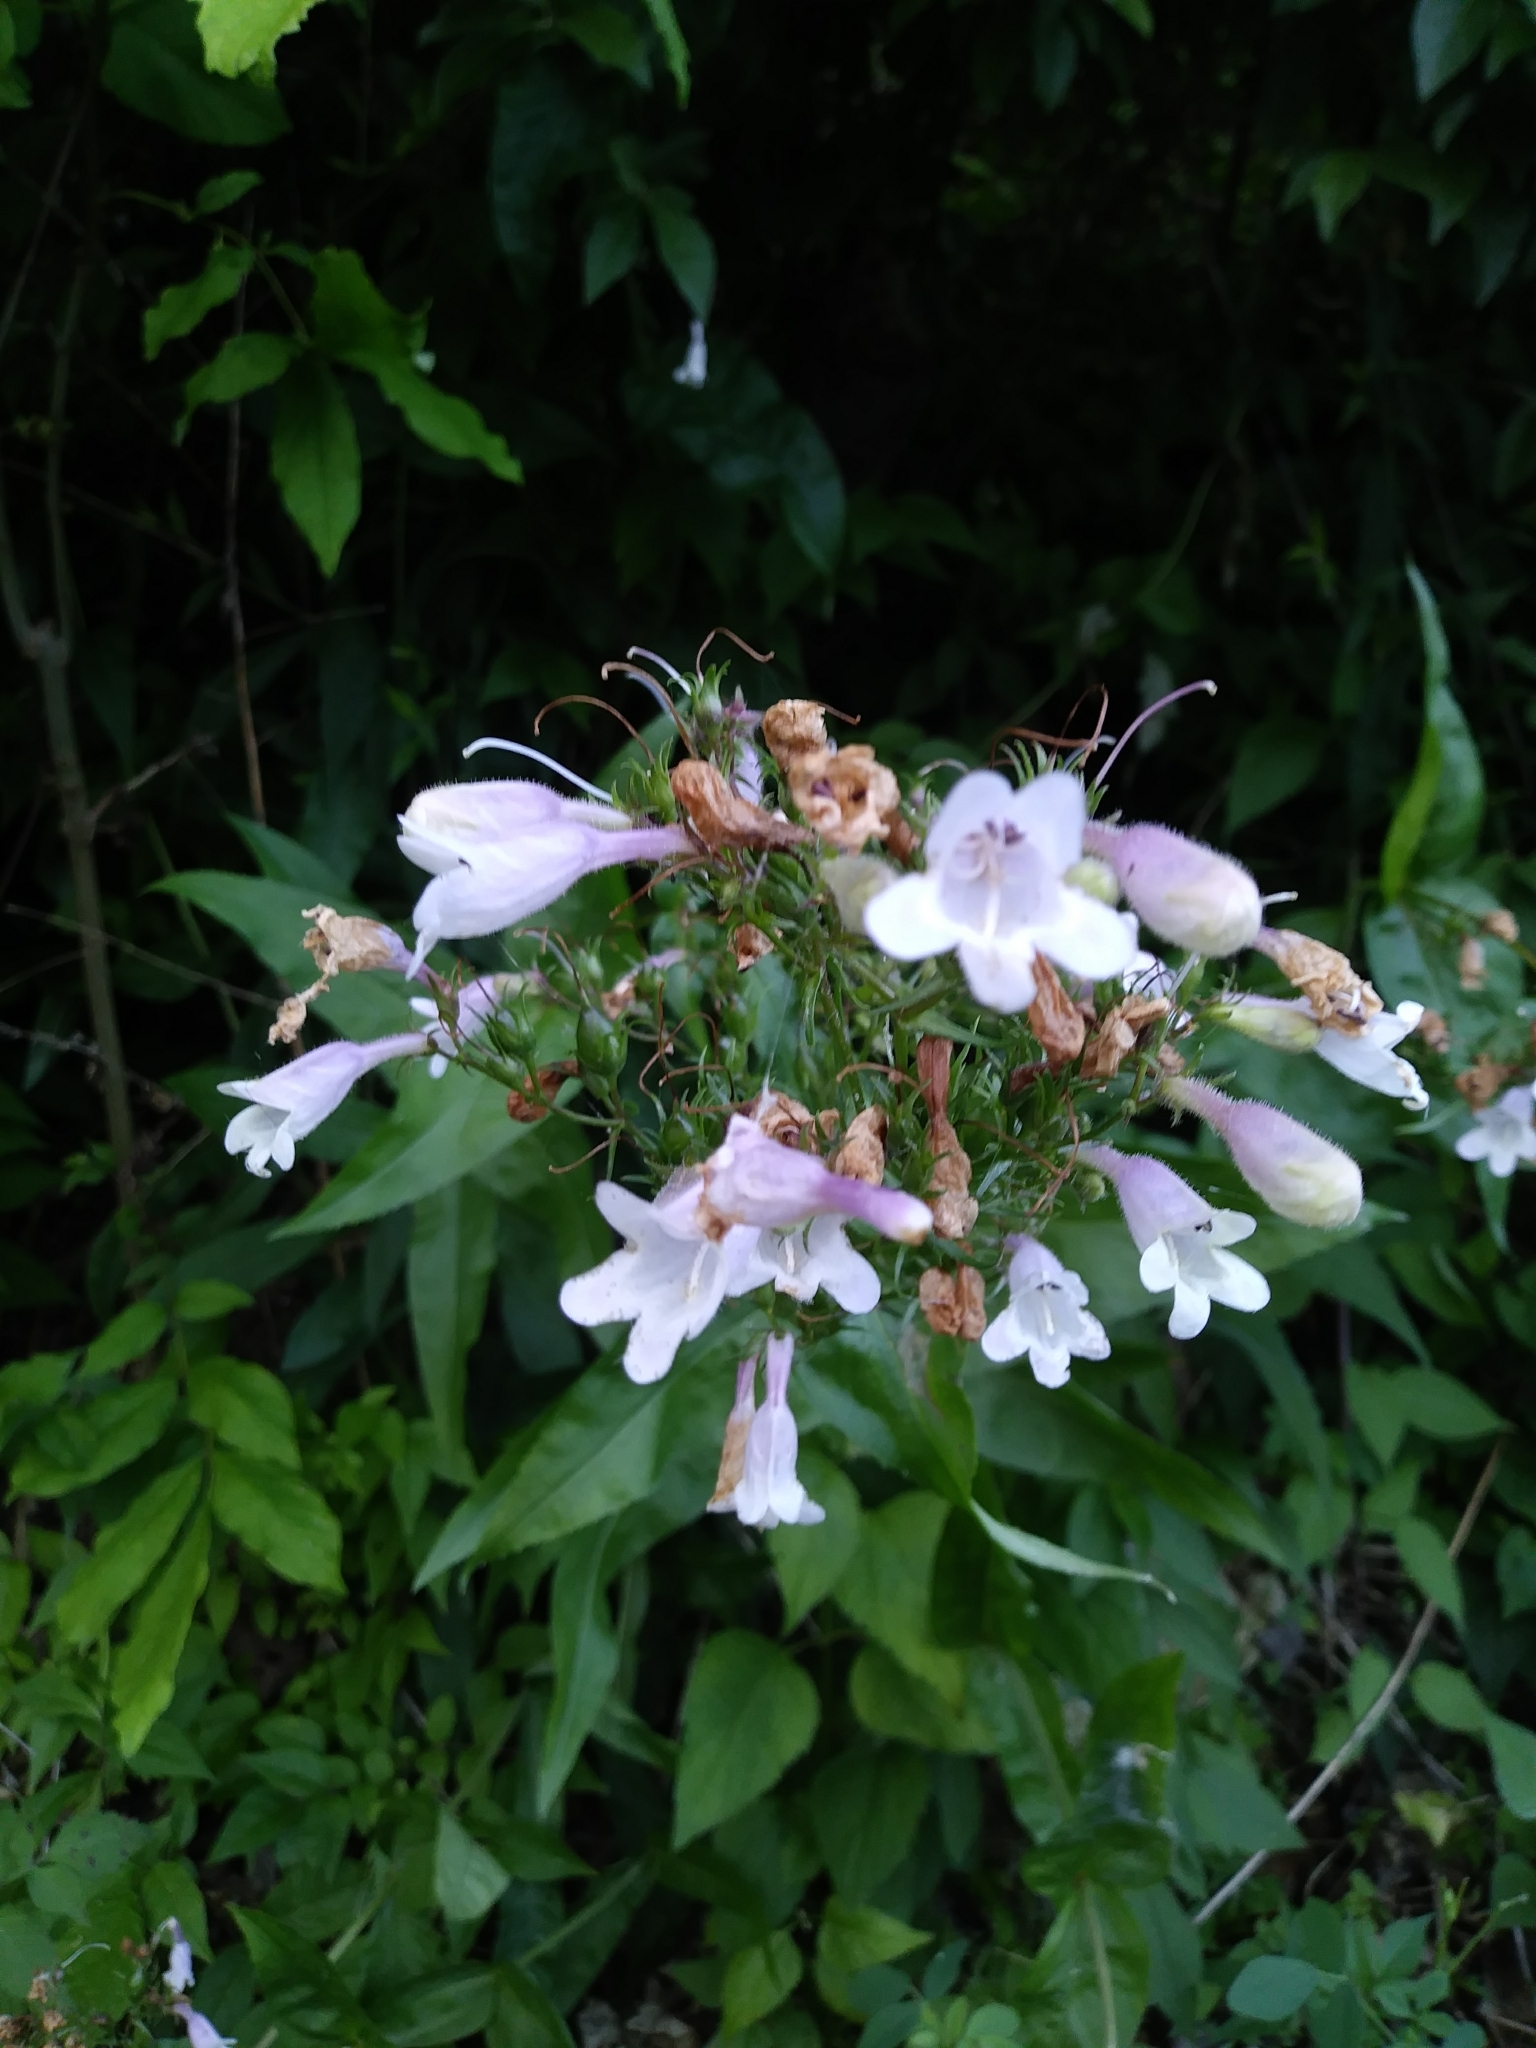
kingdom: Plantae
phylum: Tracheophyta
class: Magnoliopsida
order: Lamiales
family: Plantaginaceae
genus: Penstemon
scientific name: Penstemon digitalis
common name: Foxglove beardtongue
